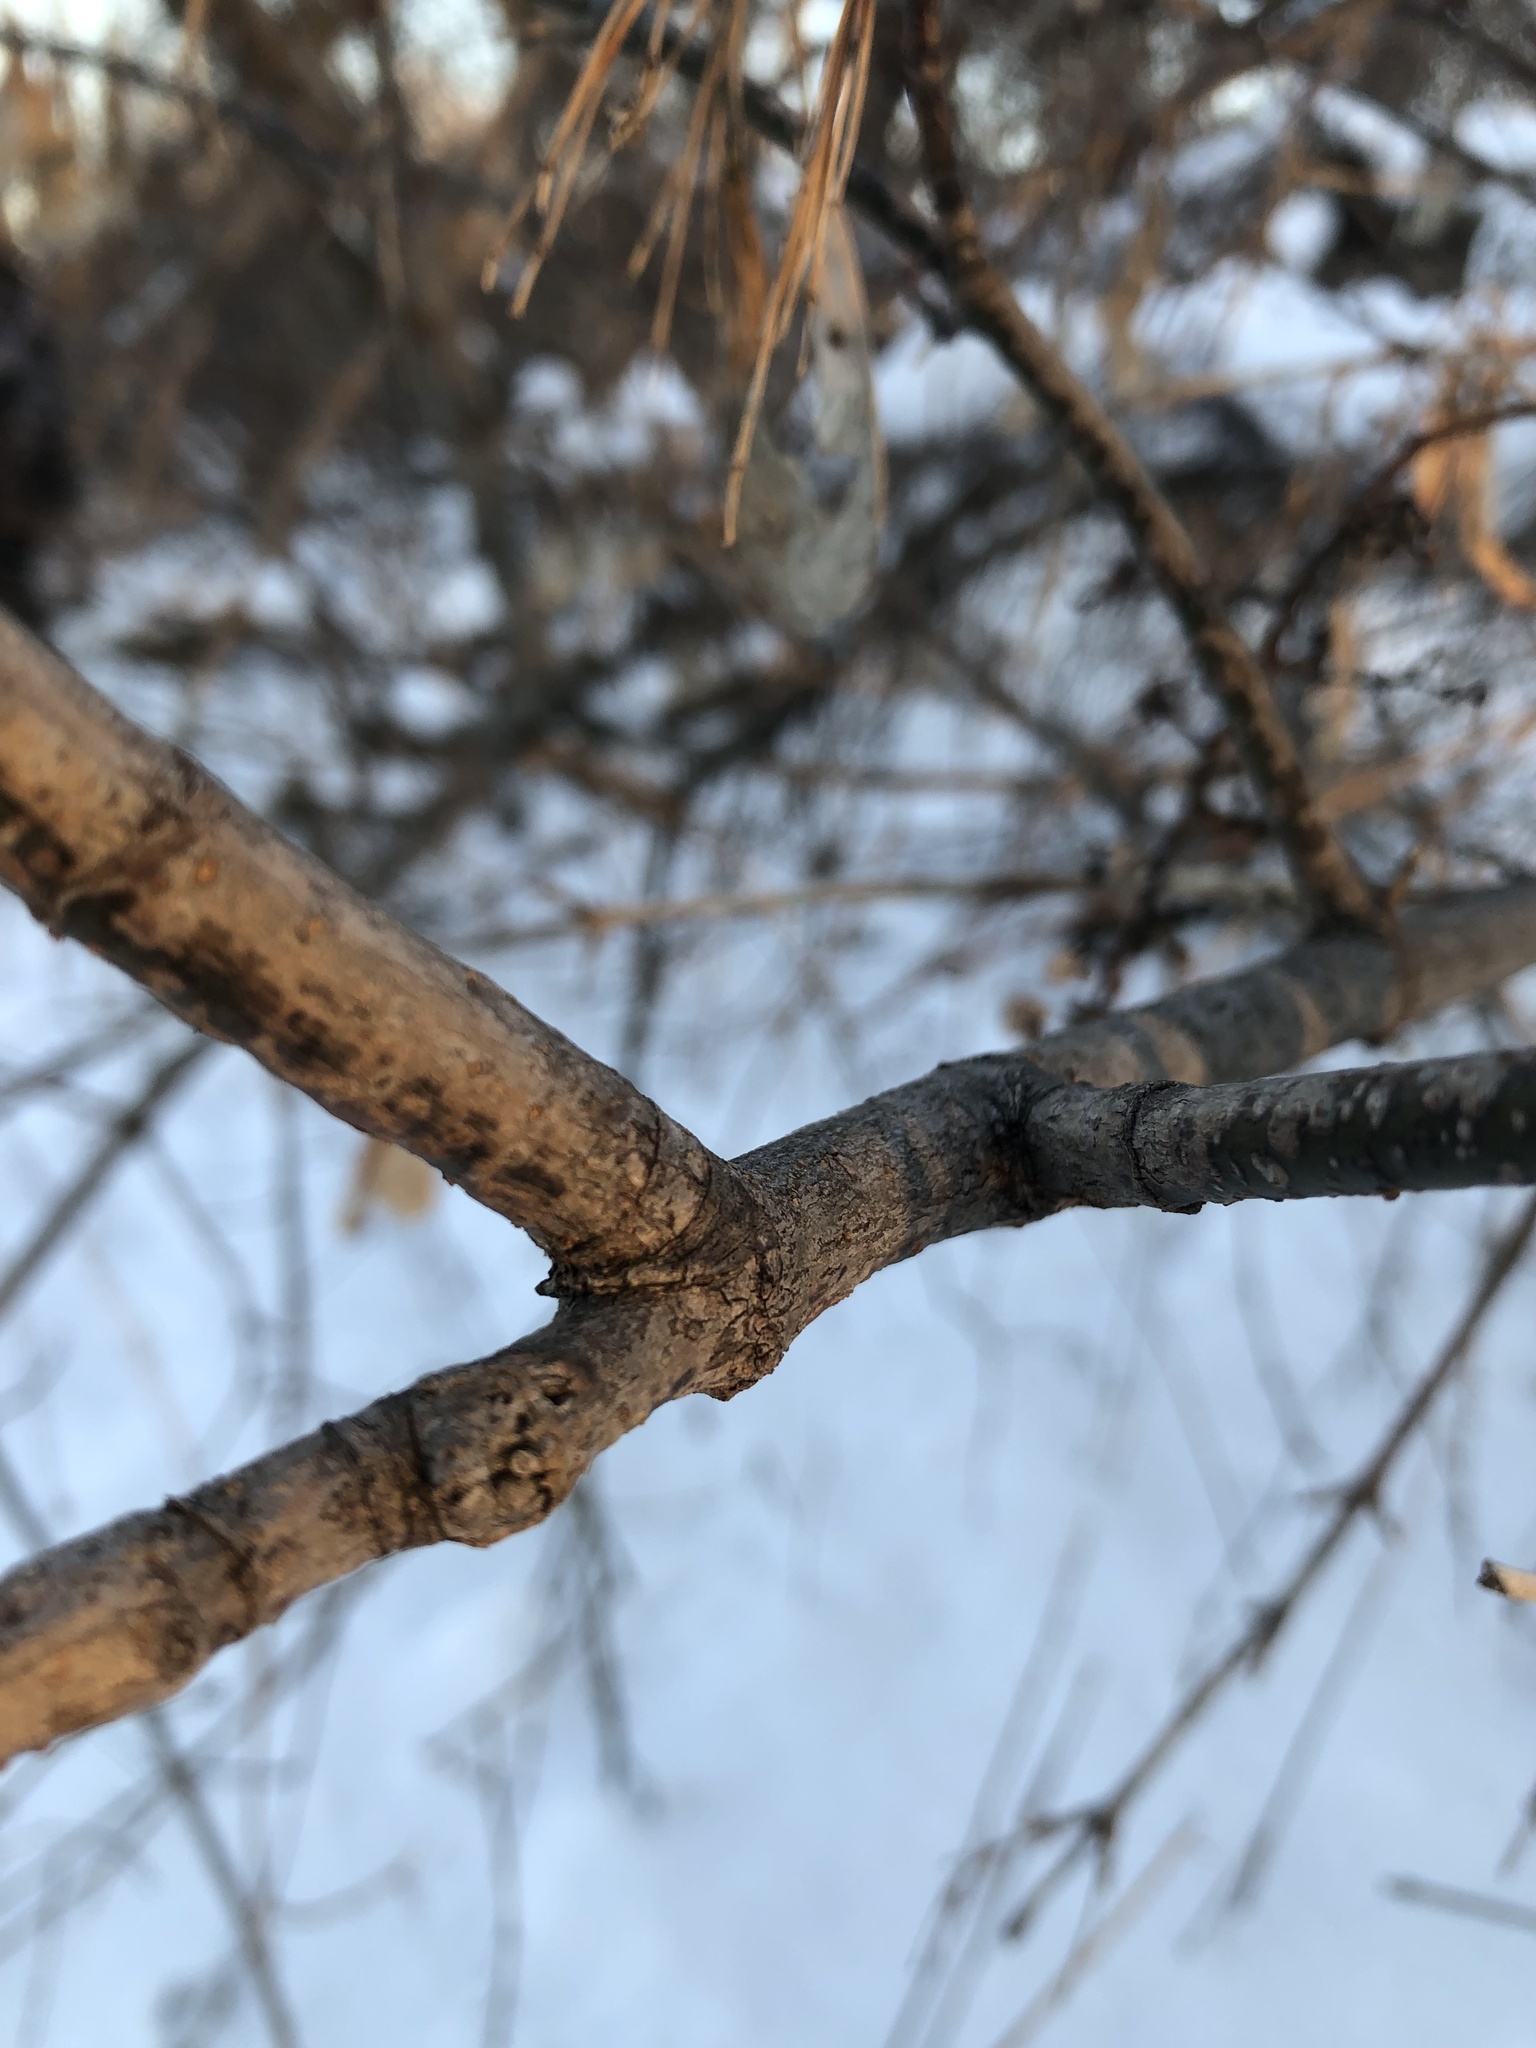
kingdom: Plantae
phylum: Tracheophyta
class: Magnoliopsida
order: Sapindales
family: Sapindaceae
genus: Acer
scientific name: Acer negundo
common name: Ashleaf maple
